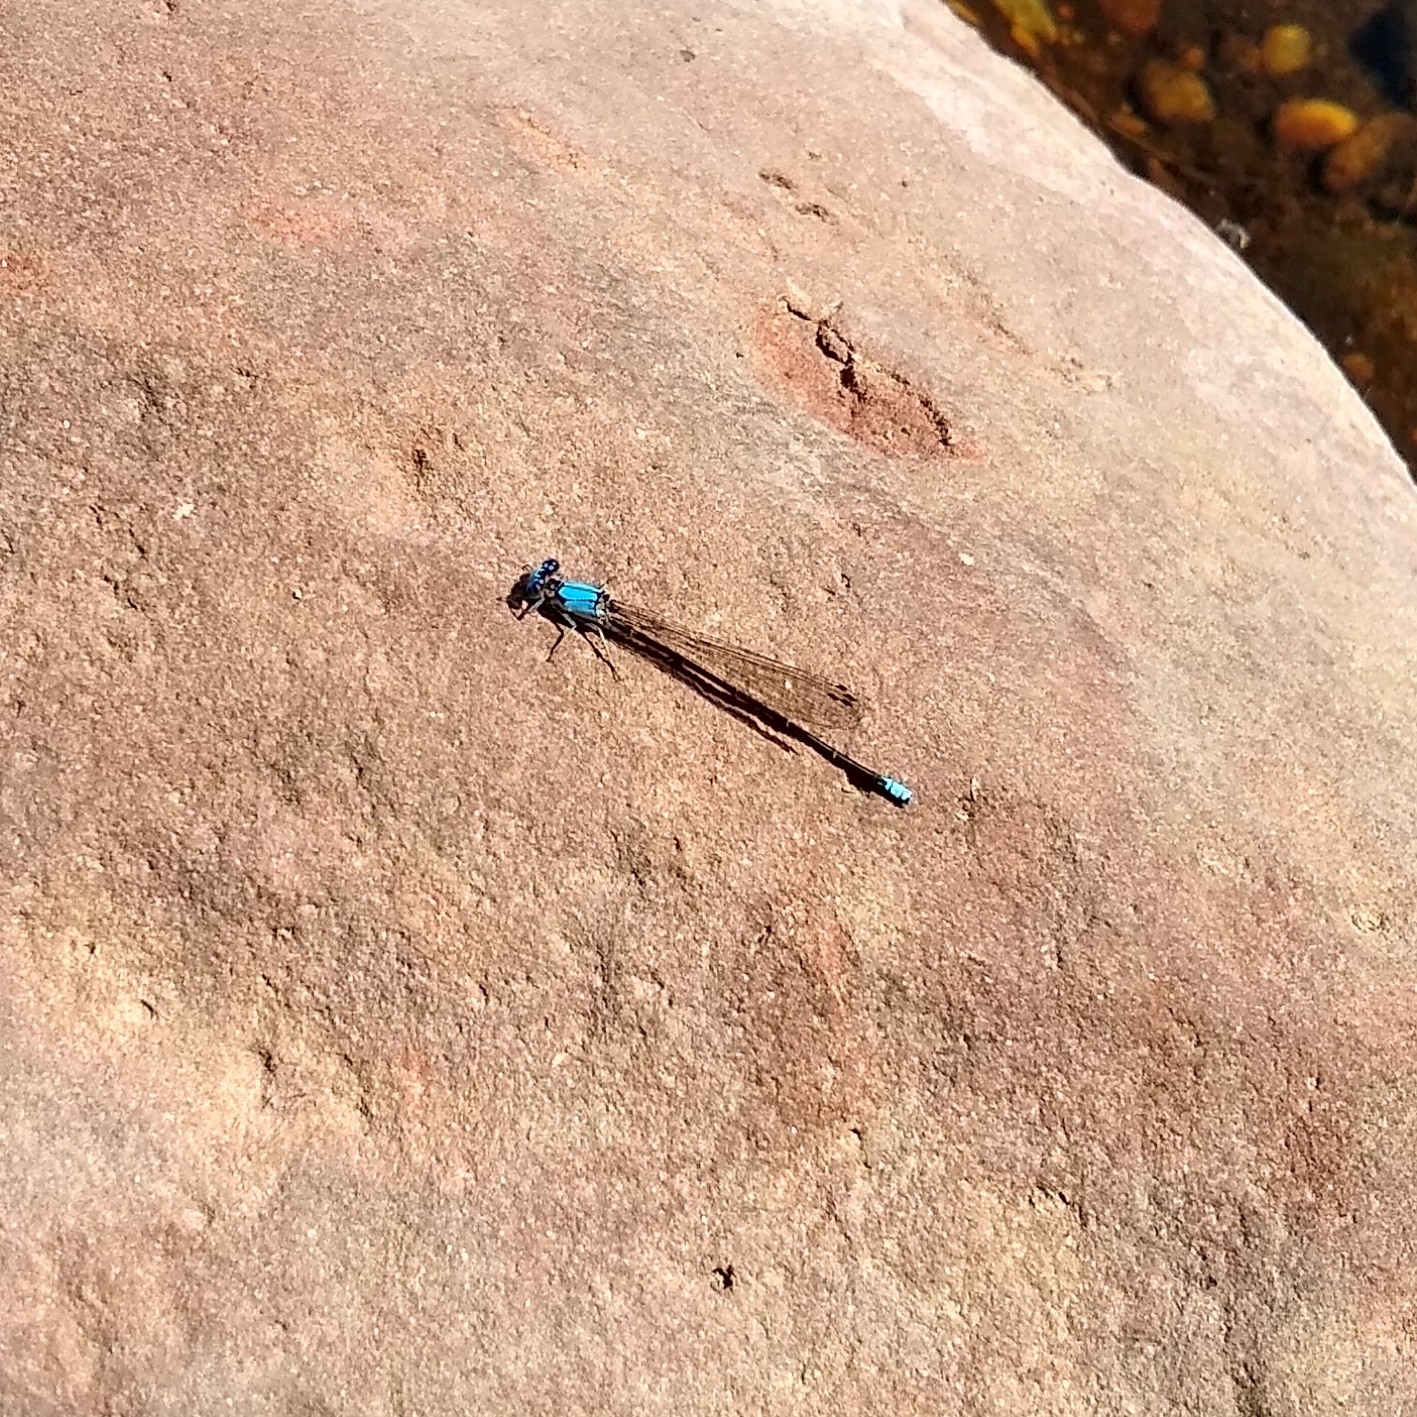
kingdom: Animalia
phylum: Arthropoda
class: Insecta
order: Odonata
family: Coenagrionidae
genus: Argia
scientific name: Argia apicalis
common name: Blue-fronted dancer
